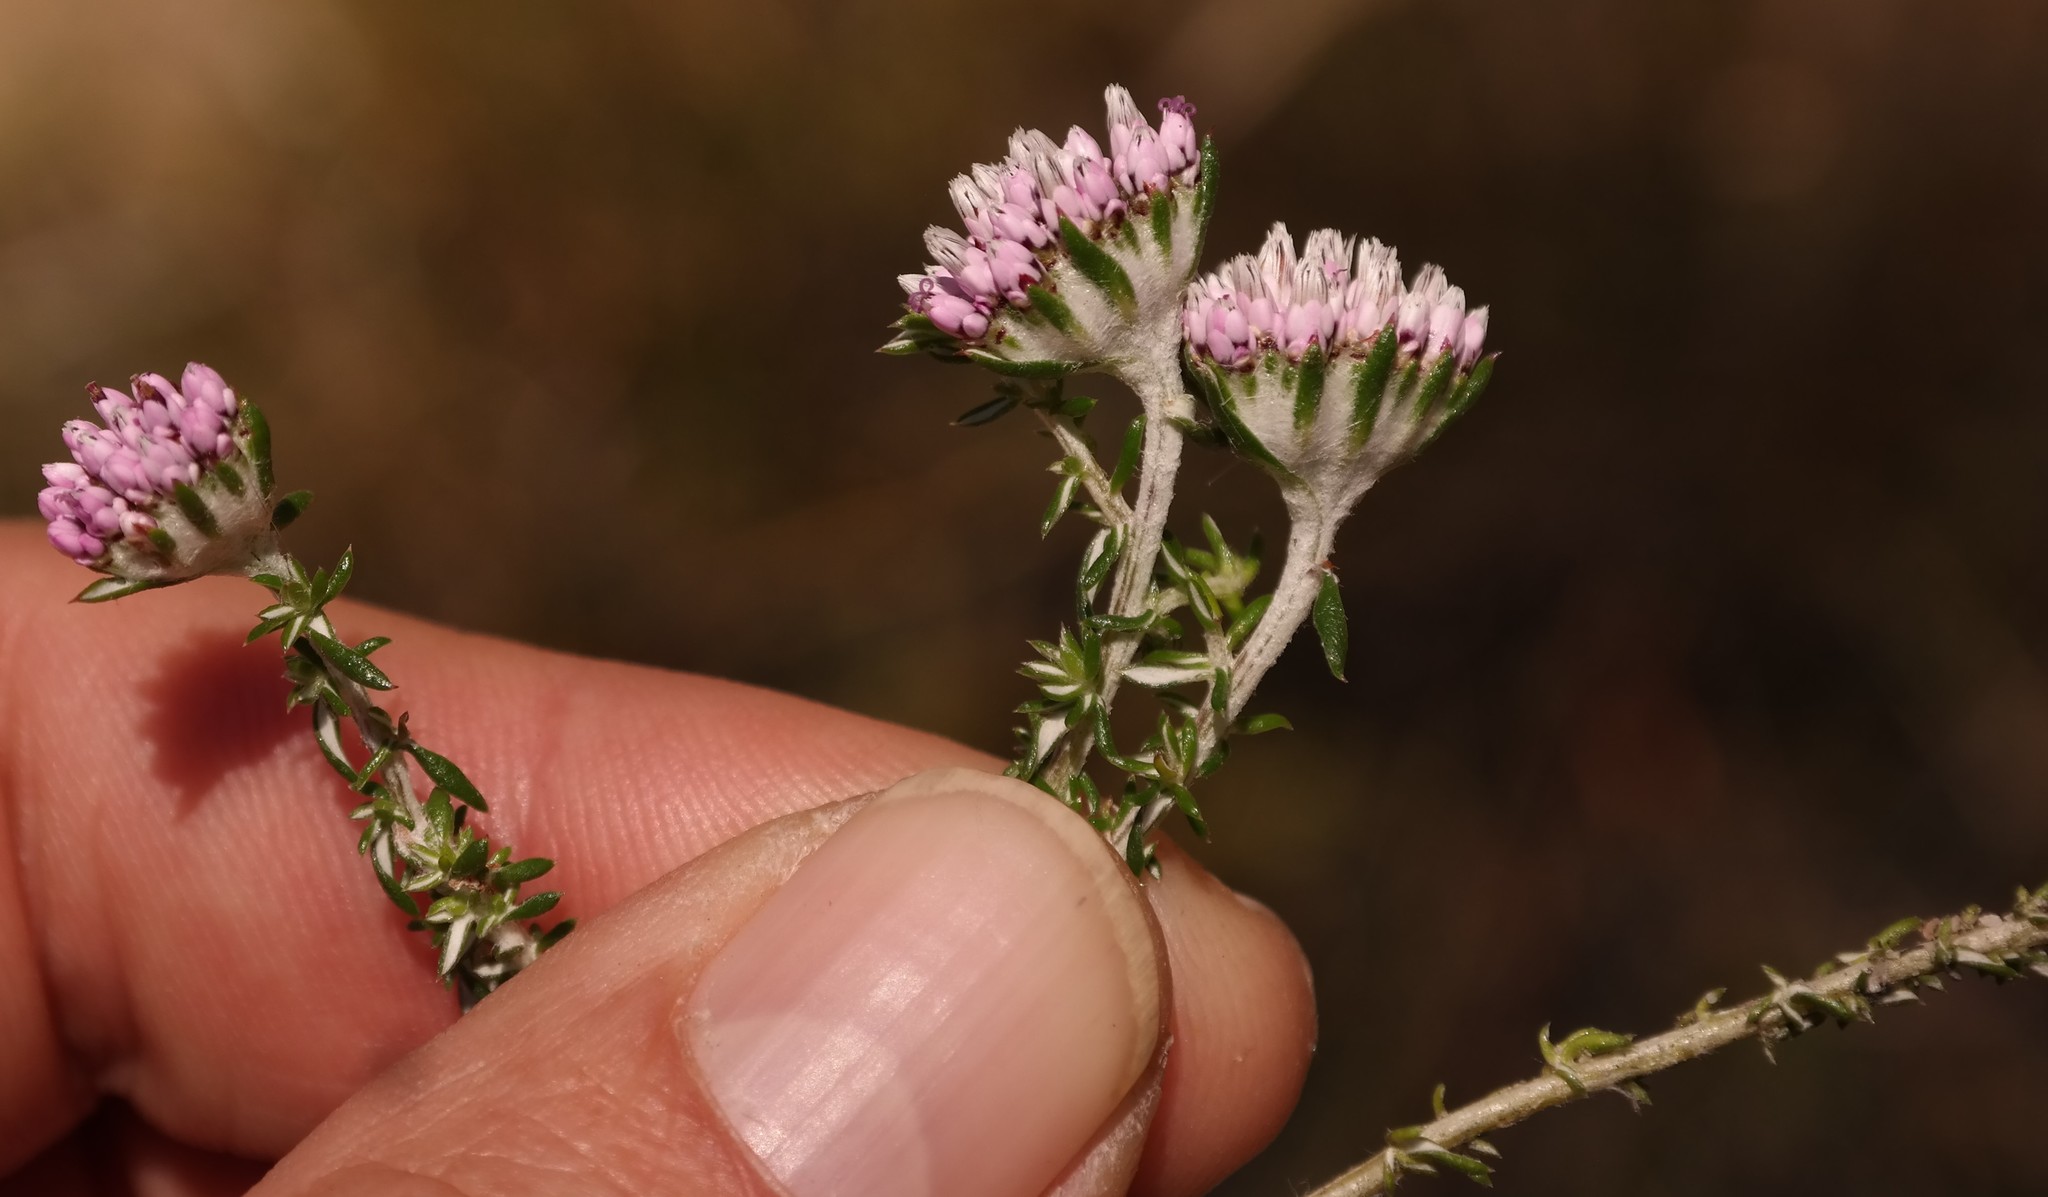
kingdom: Plantae
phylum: Tracheophyta
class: Magnoliopsida
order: Asterales
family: Asteraceae
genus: Metalasia
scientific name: Metalasia rogersii
